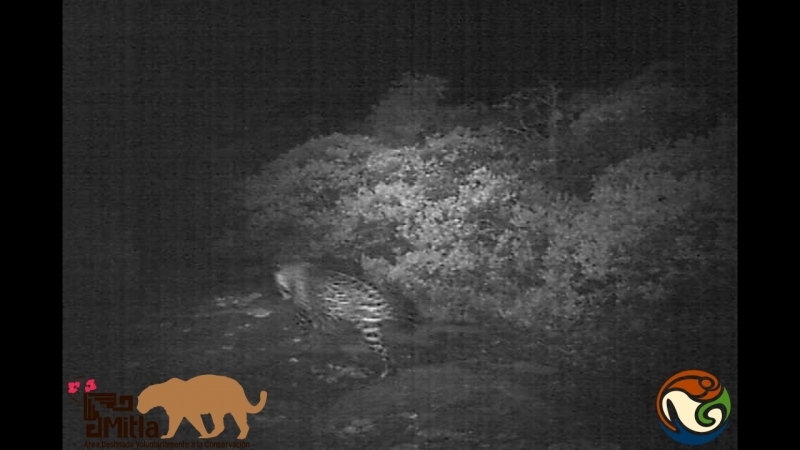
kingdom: Animalia
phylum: Chordata
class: Mammalia
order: Carnivora
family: Felidae
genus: Panthera
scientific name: Panthera onca
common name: Jaguar
